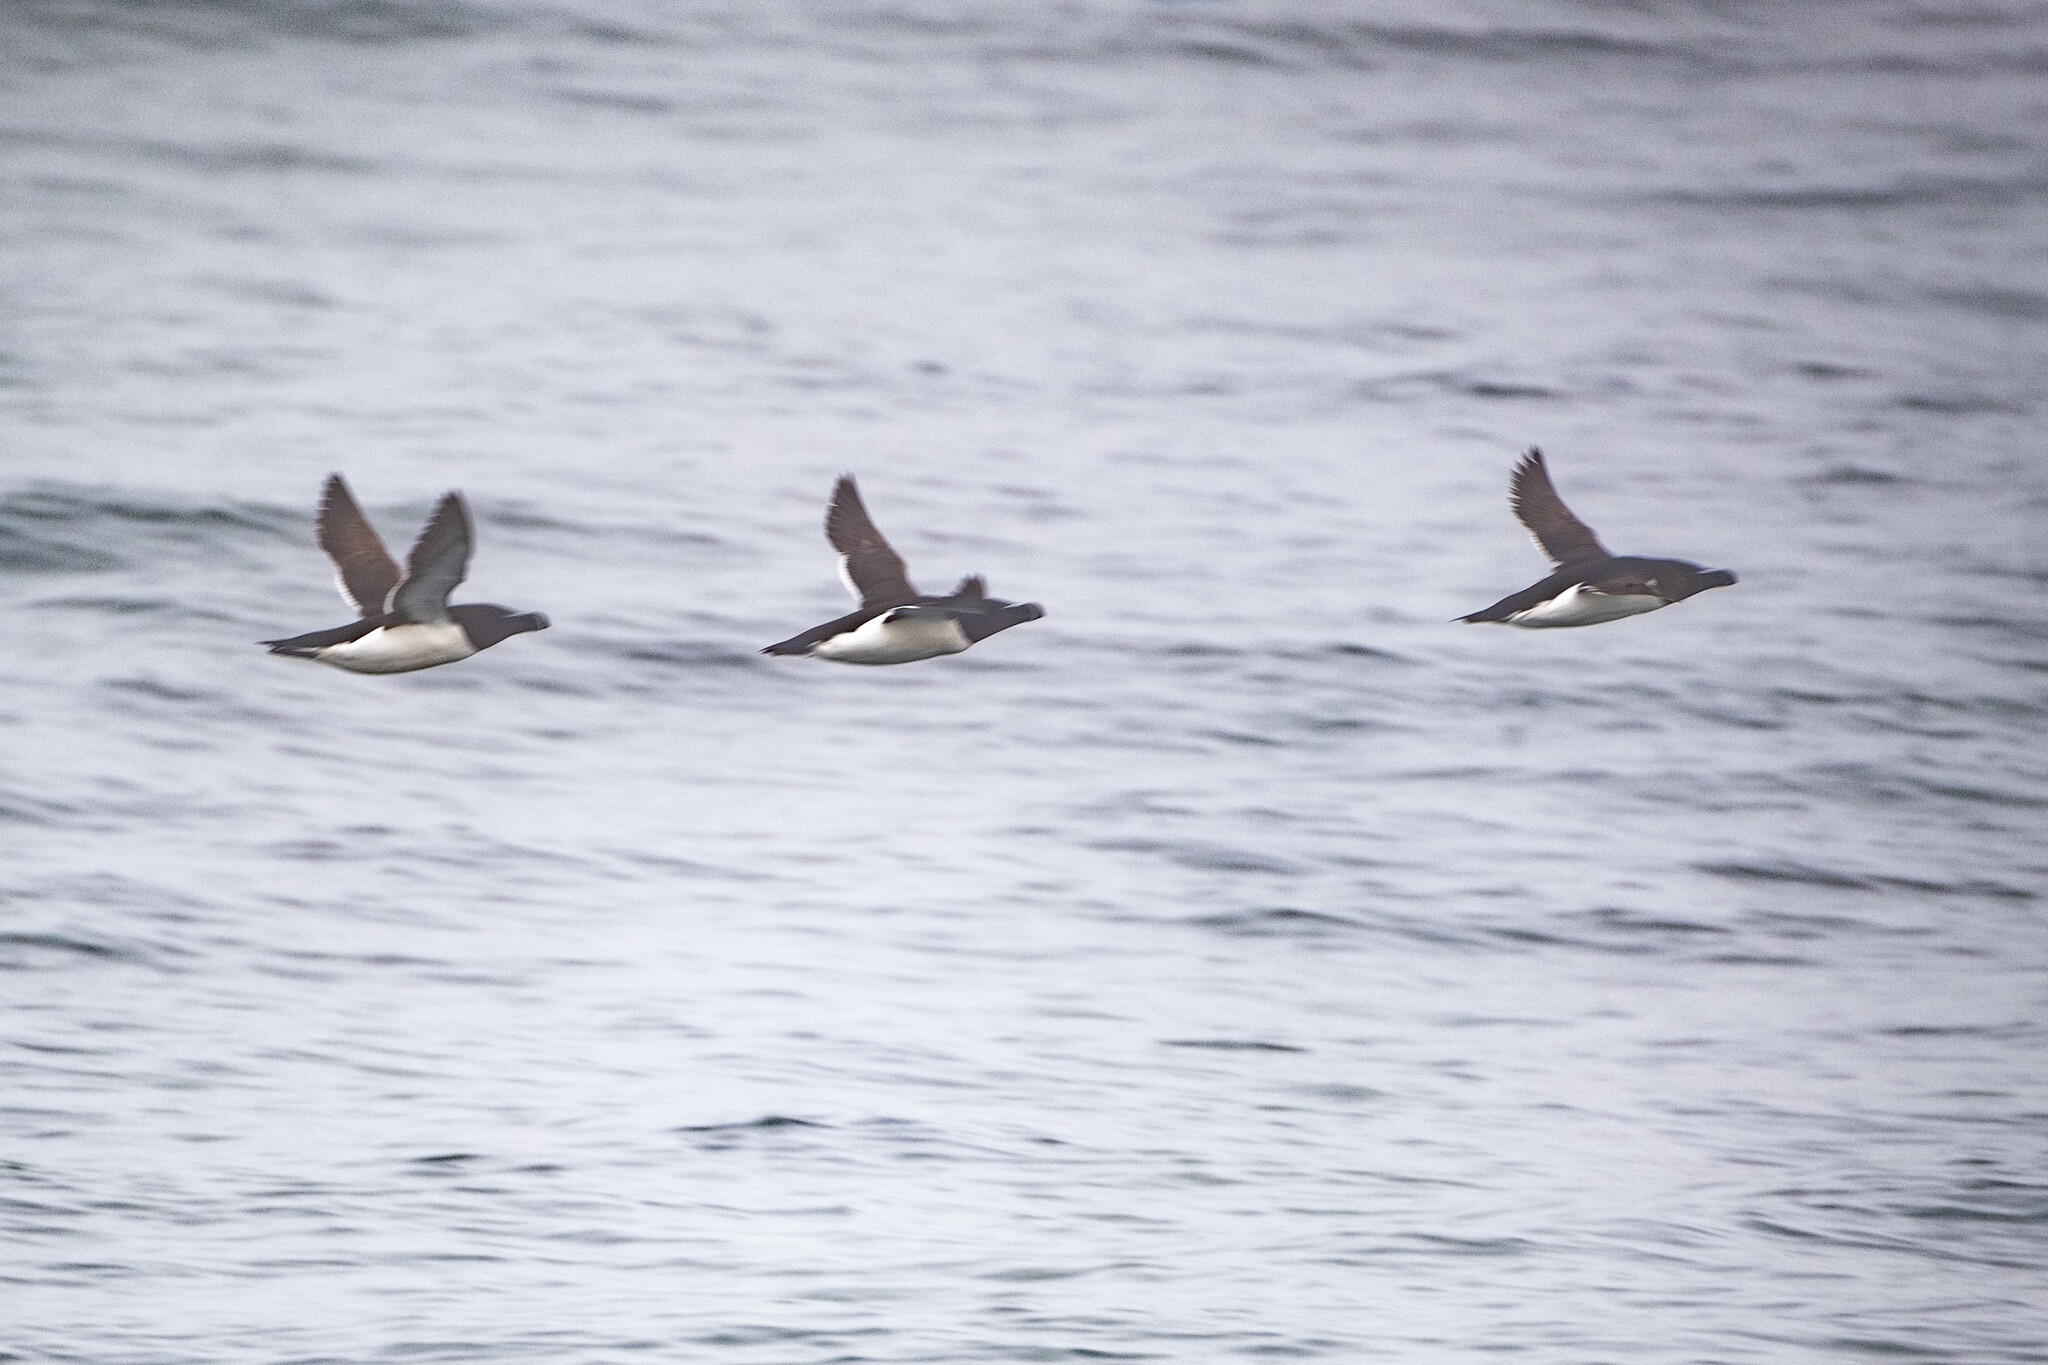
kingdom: Animalia
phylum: Chordata
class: Aves
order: Charadriiformes
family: Alcidae
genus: Alca
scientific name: Alca torda
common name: Razorbill
